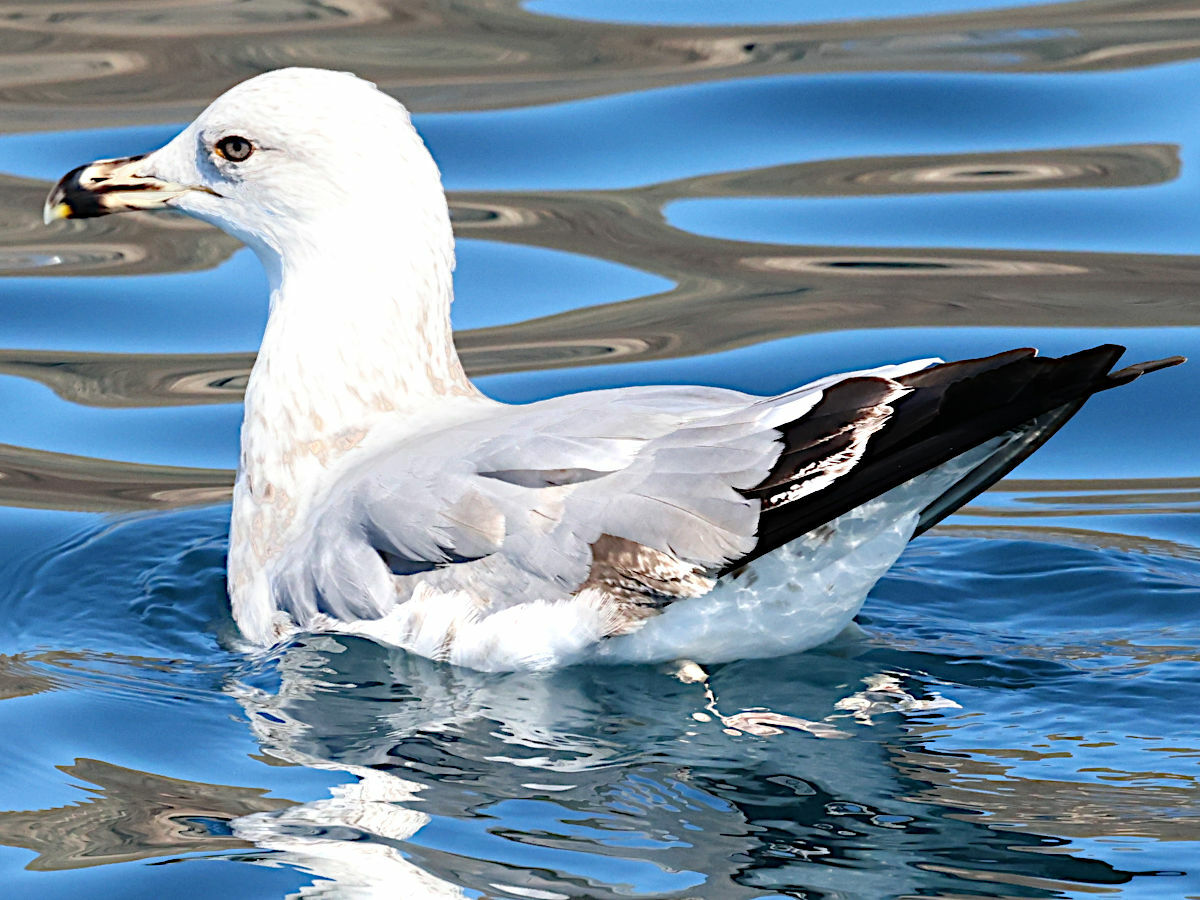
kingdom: Animalia
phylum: Chordata
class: Aves
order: Charadriiformes
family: Laridae
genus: Larus
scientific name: Larus michahellis
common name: Yellow-legged gull
